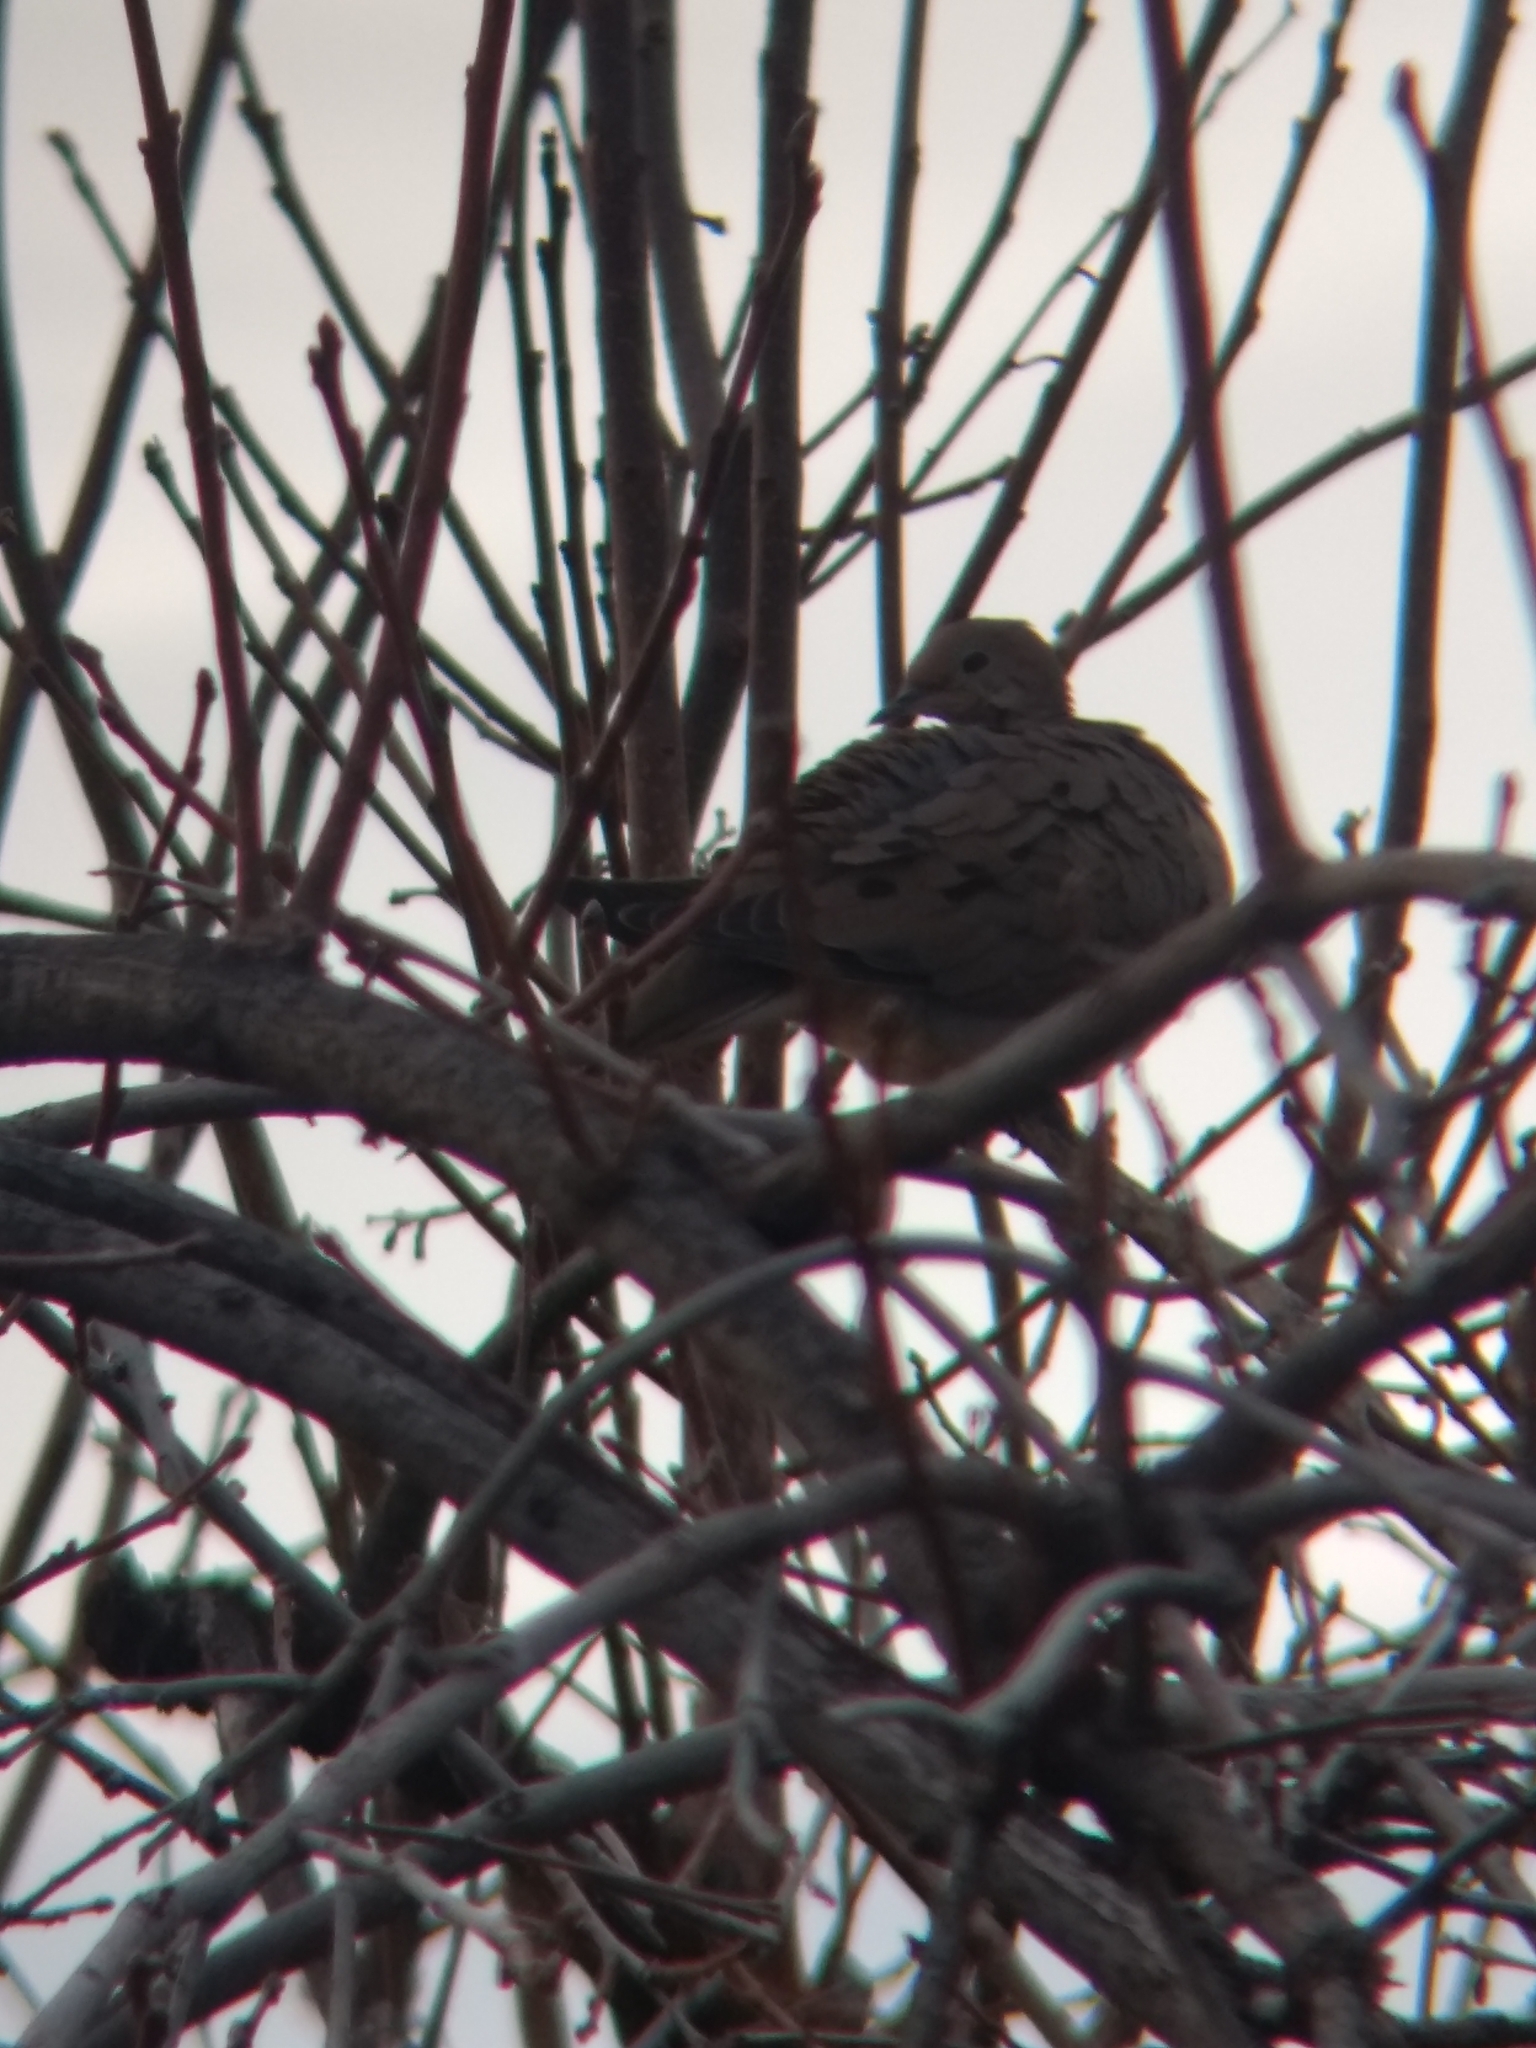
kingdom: Animalia
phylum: Chordata
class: Aves
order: Columbiformes
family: Columbidae
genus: Zenaida
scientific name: Zenaida macroura
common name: Mourning dove
